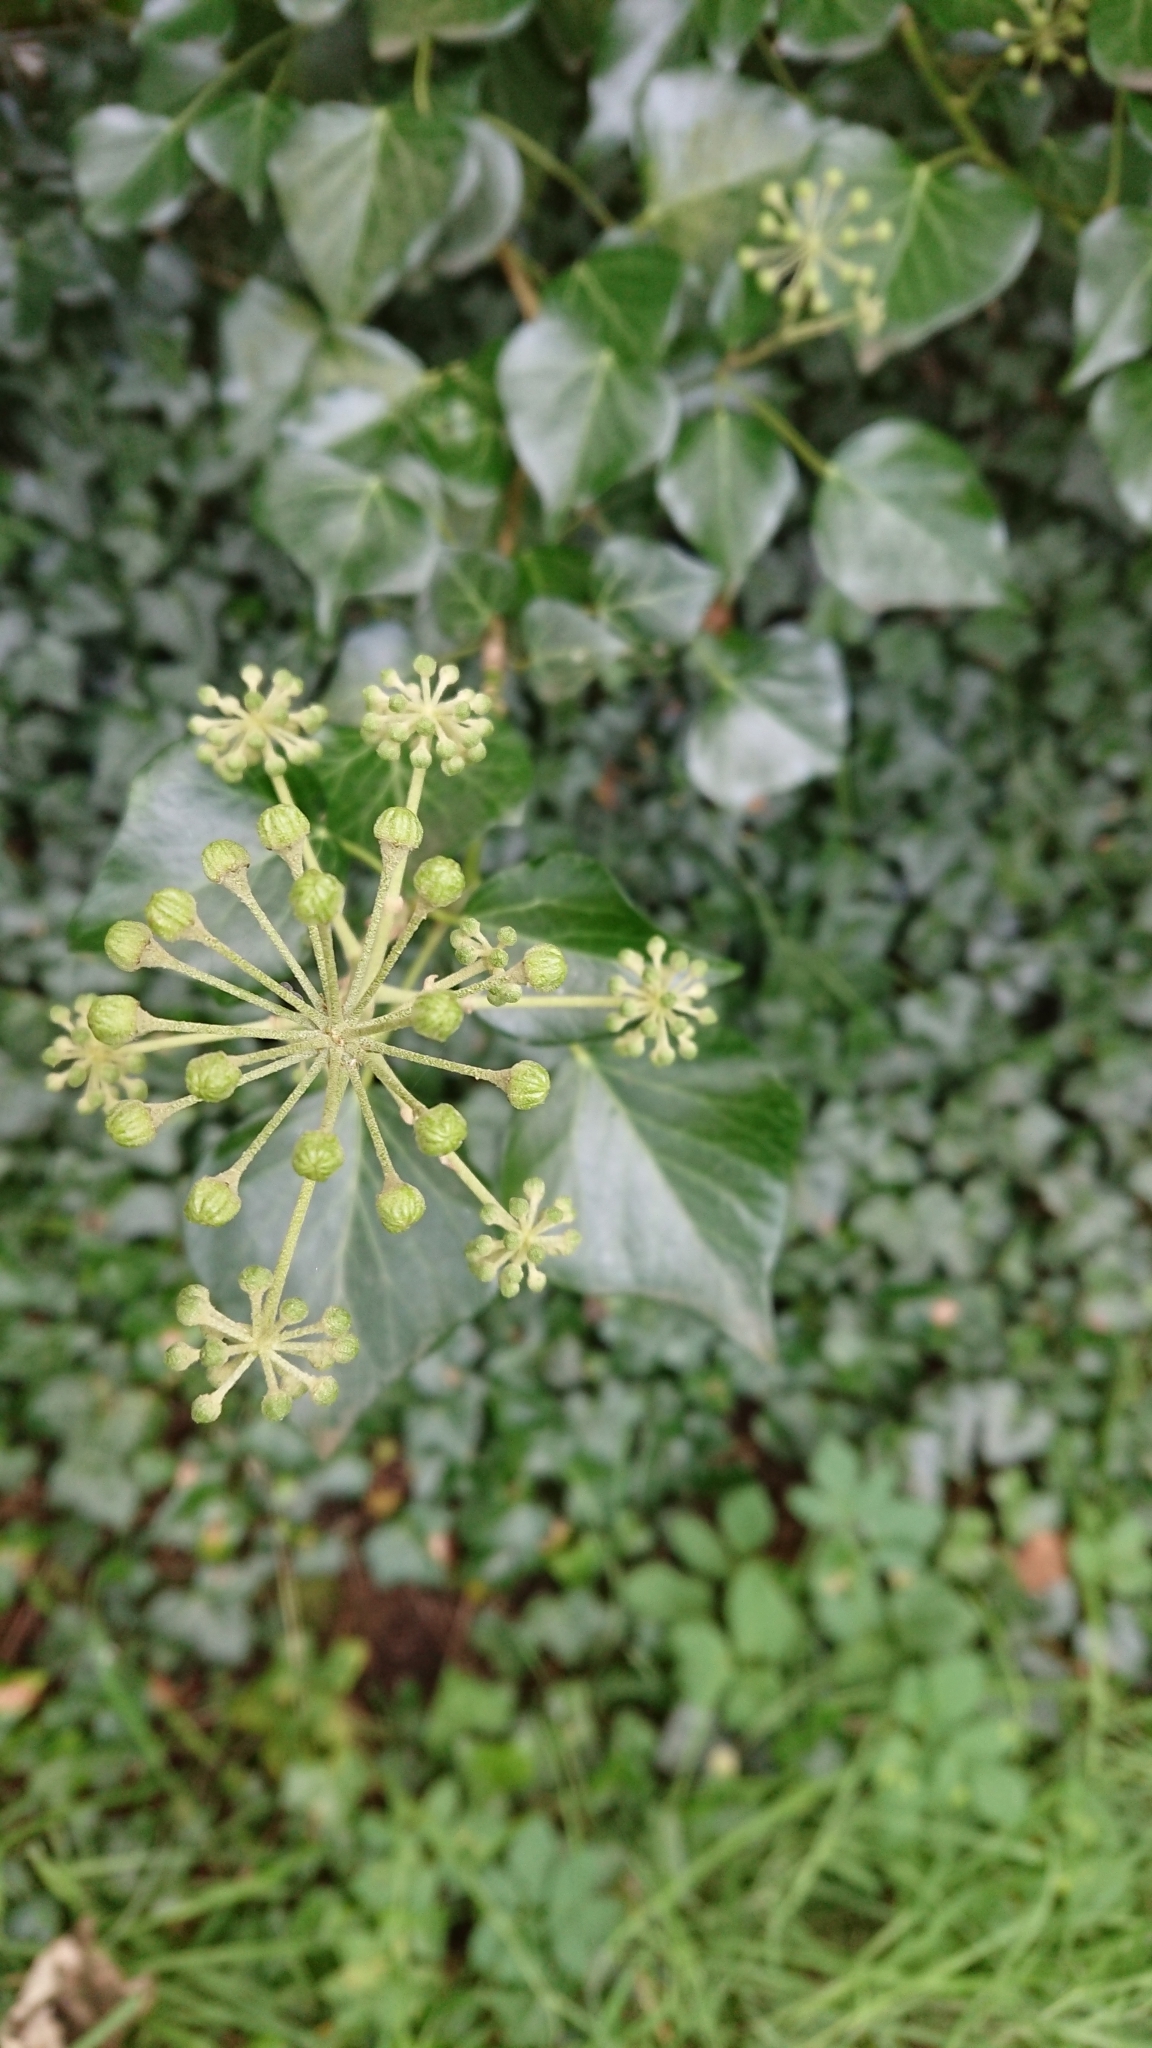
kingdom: Plantae
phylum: Tracheophyta
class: Magnoliopsida
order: Apiales
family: Araliaceae
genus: Hedera
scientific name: Hedera helix
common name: Ivy
